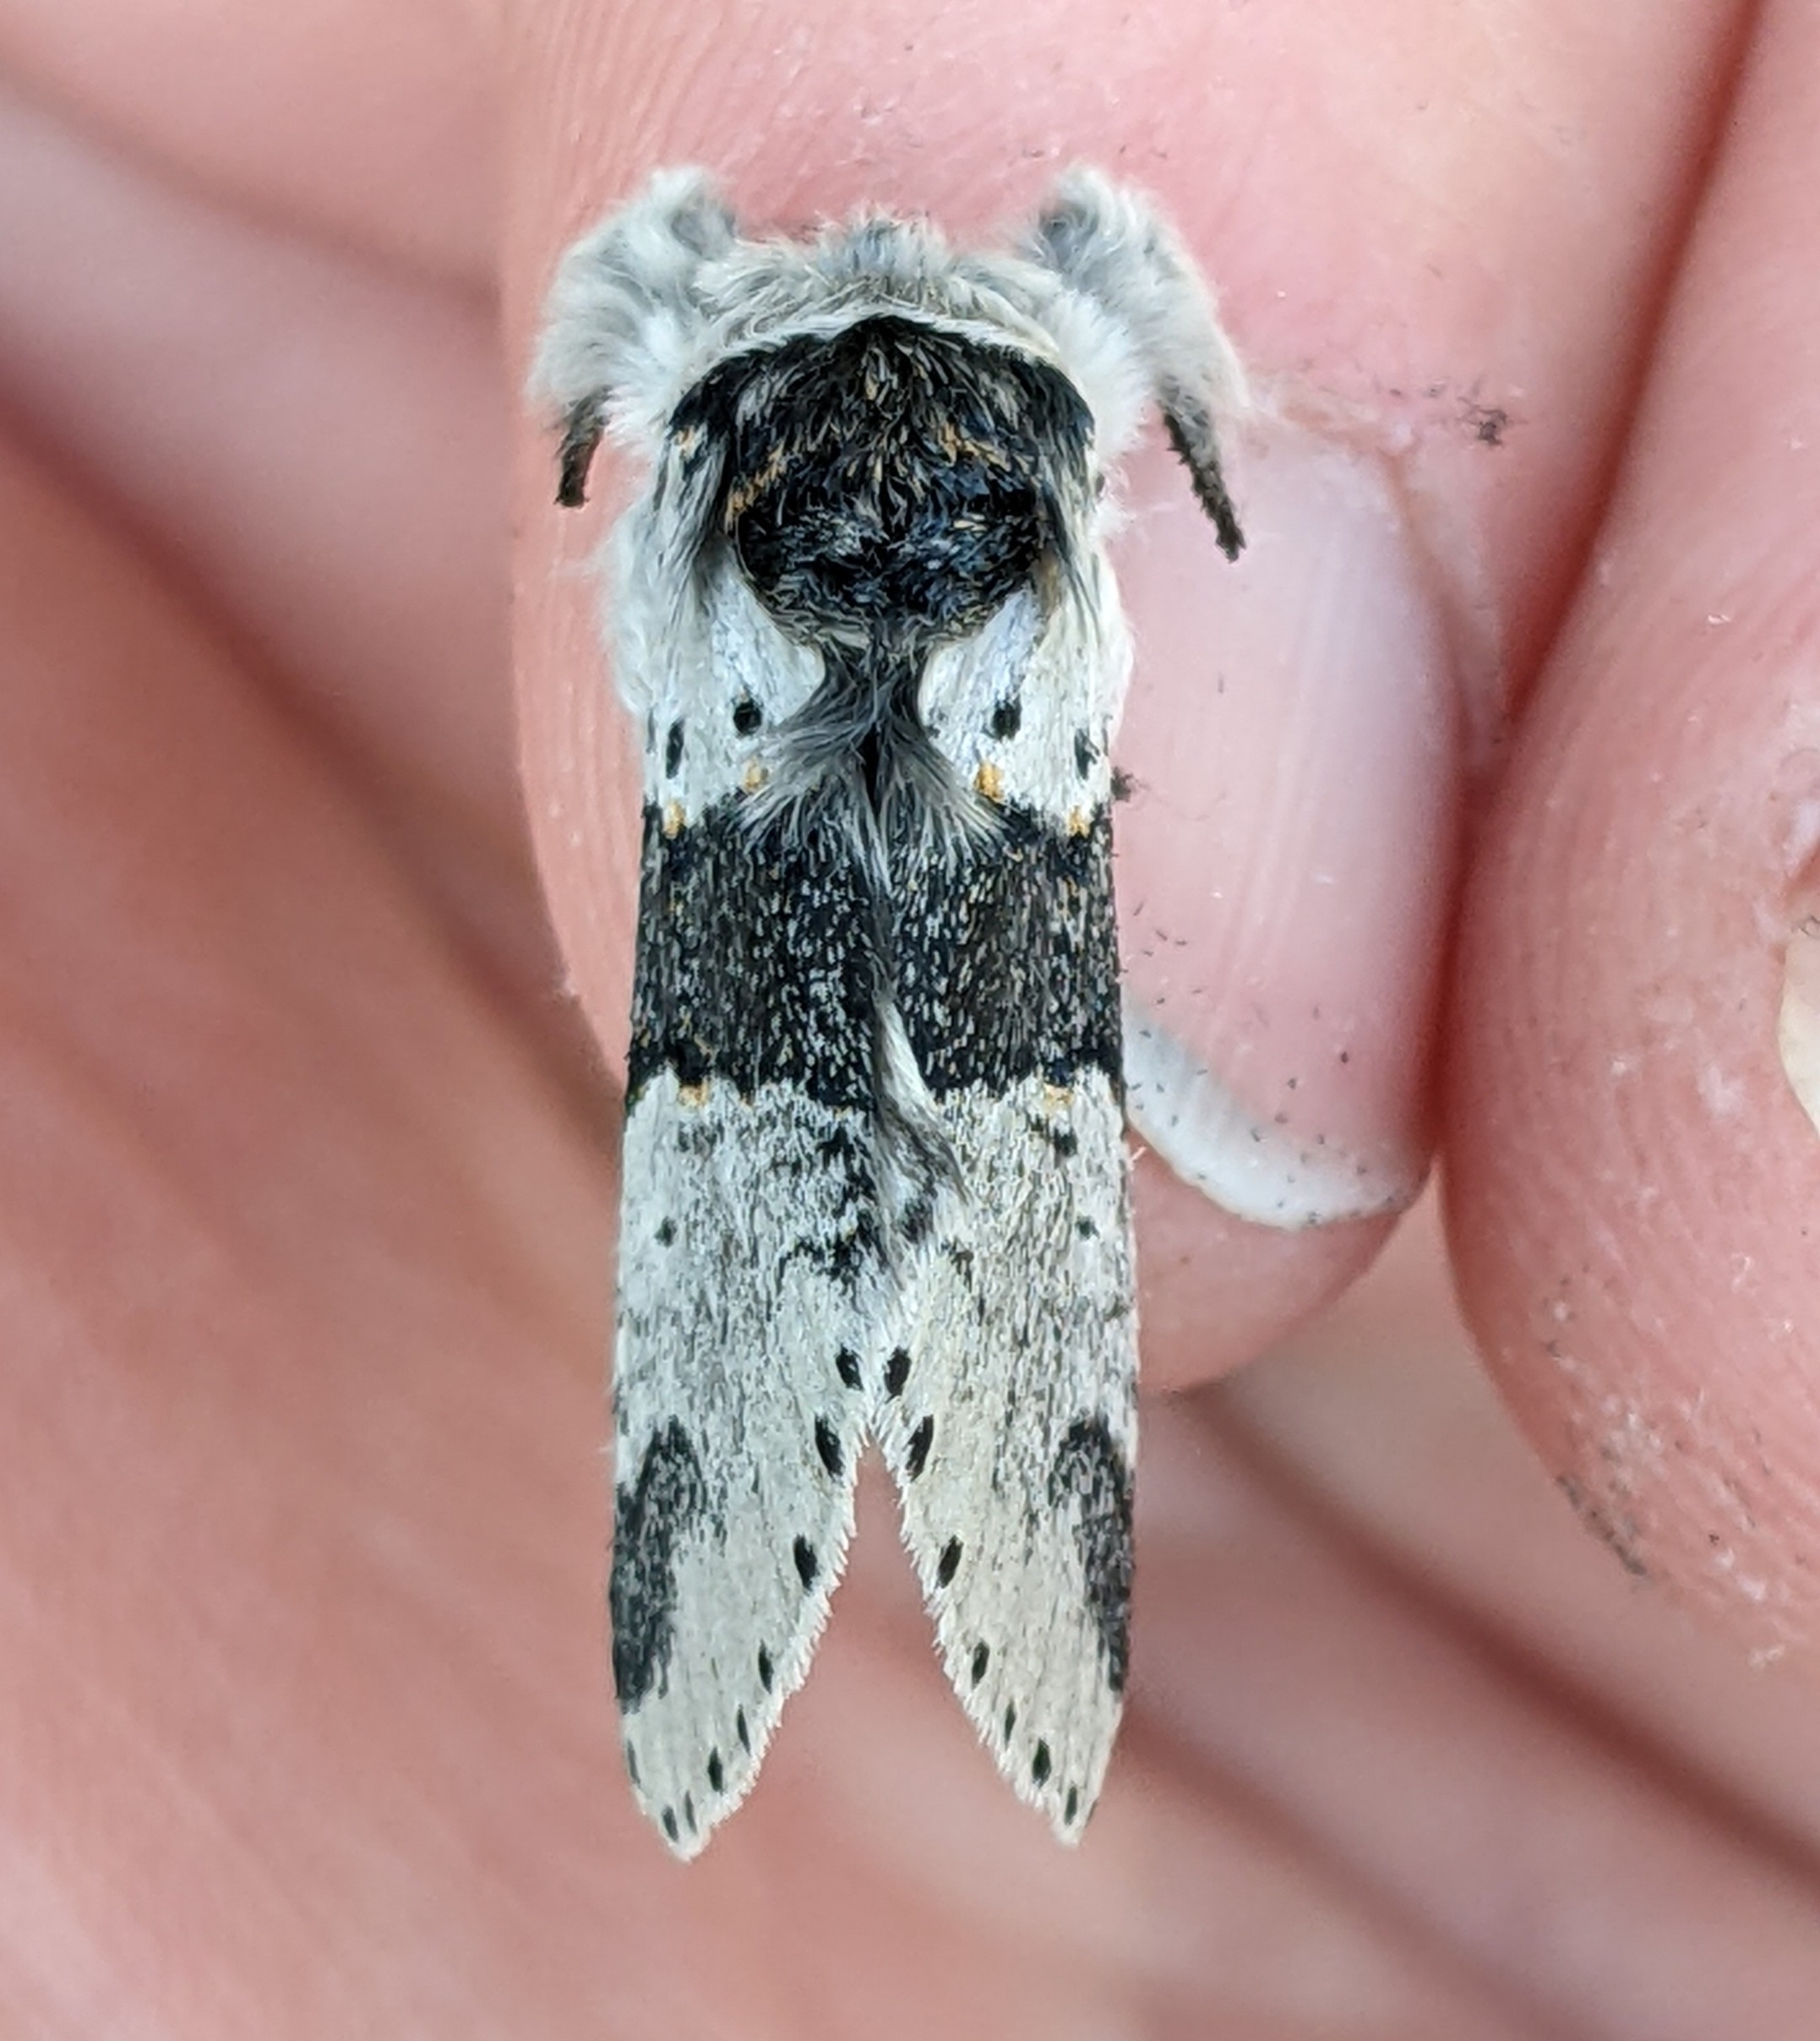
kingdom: Animalia
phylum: Arthropoda
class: Insecta
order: Lepidoptera
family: Notodontidae
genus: Furcula
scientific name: Furcula occidentalis
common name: Western furcula moth
